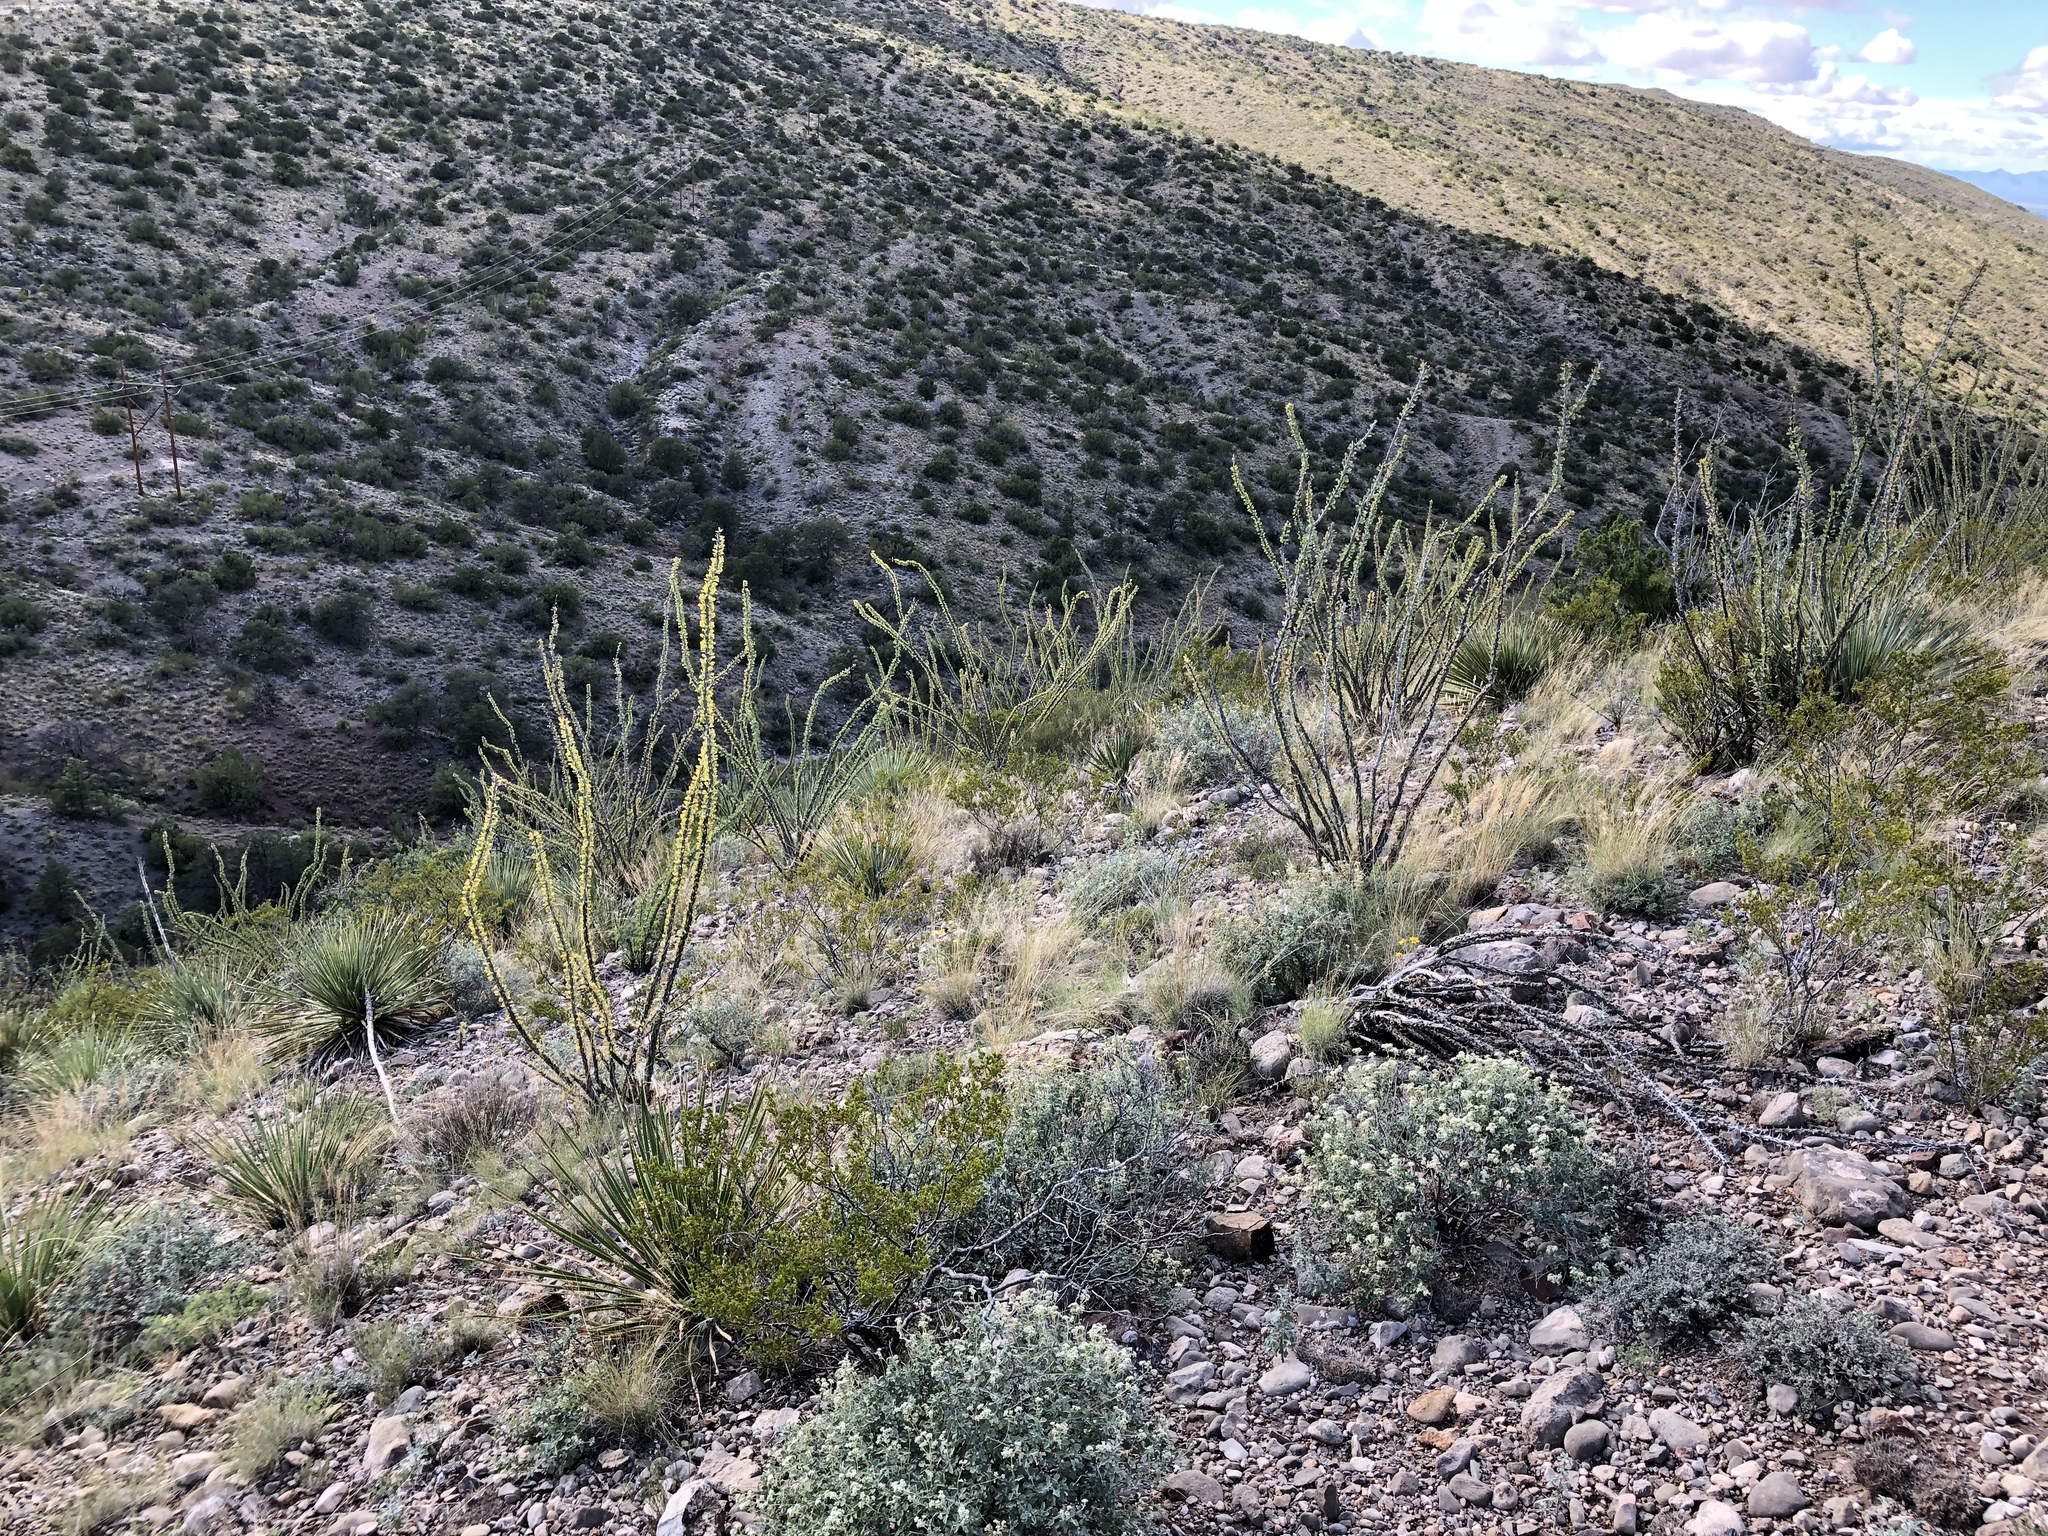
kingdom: Plantae
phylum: Tracheophyta
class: Magnoliopsida
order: Ericales
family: Fouquieriaceae
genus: Fouquieria
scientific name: Fouquieria splendens
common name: Vine-cactus
